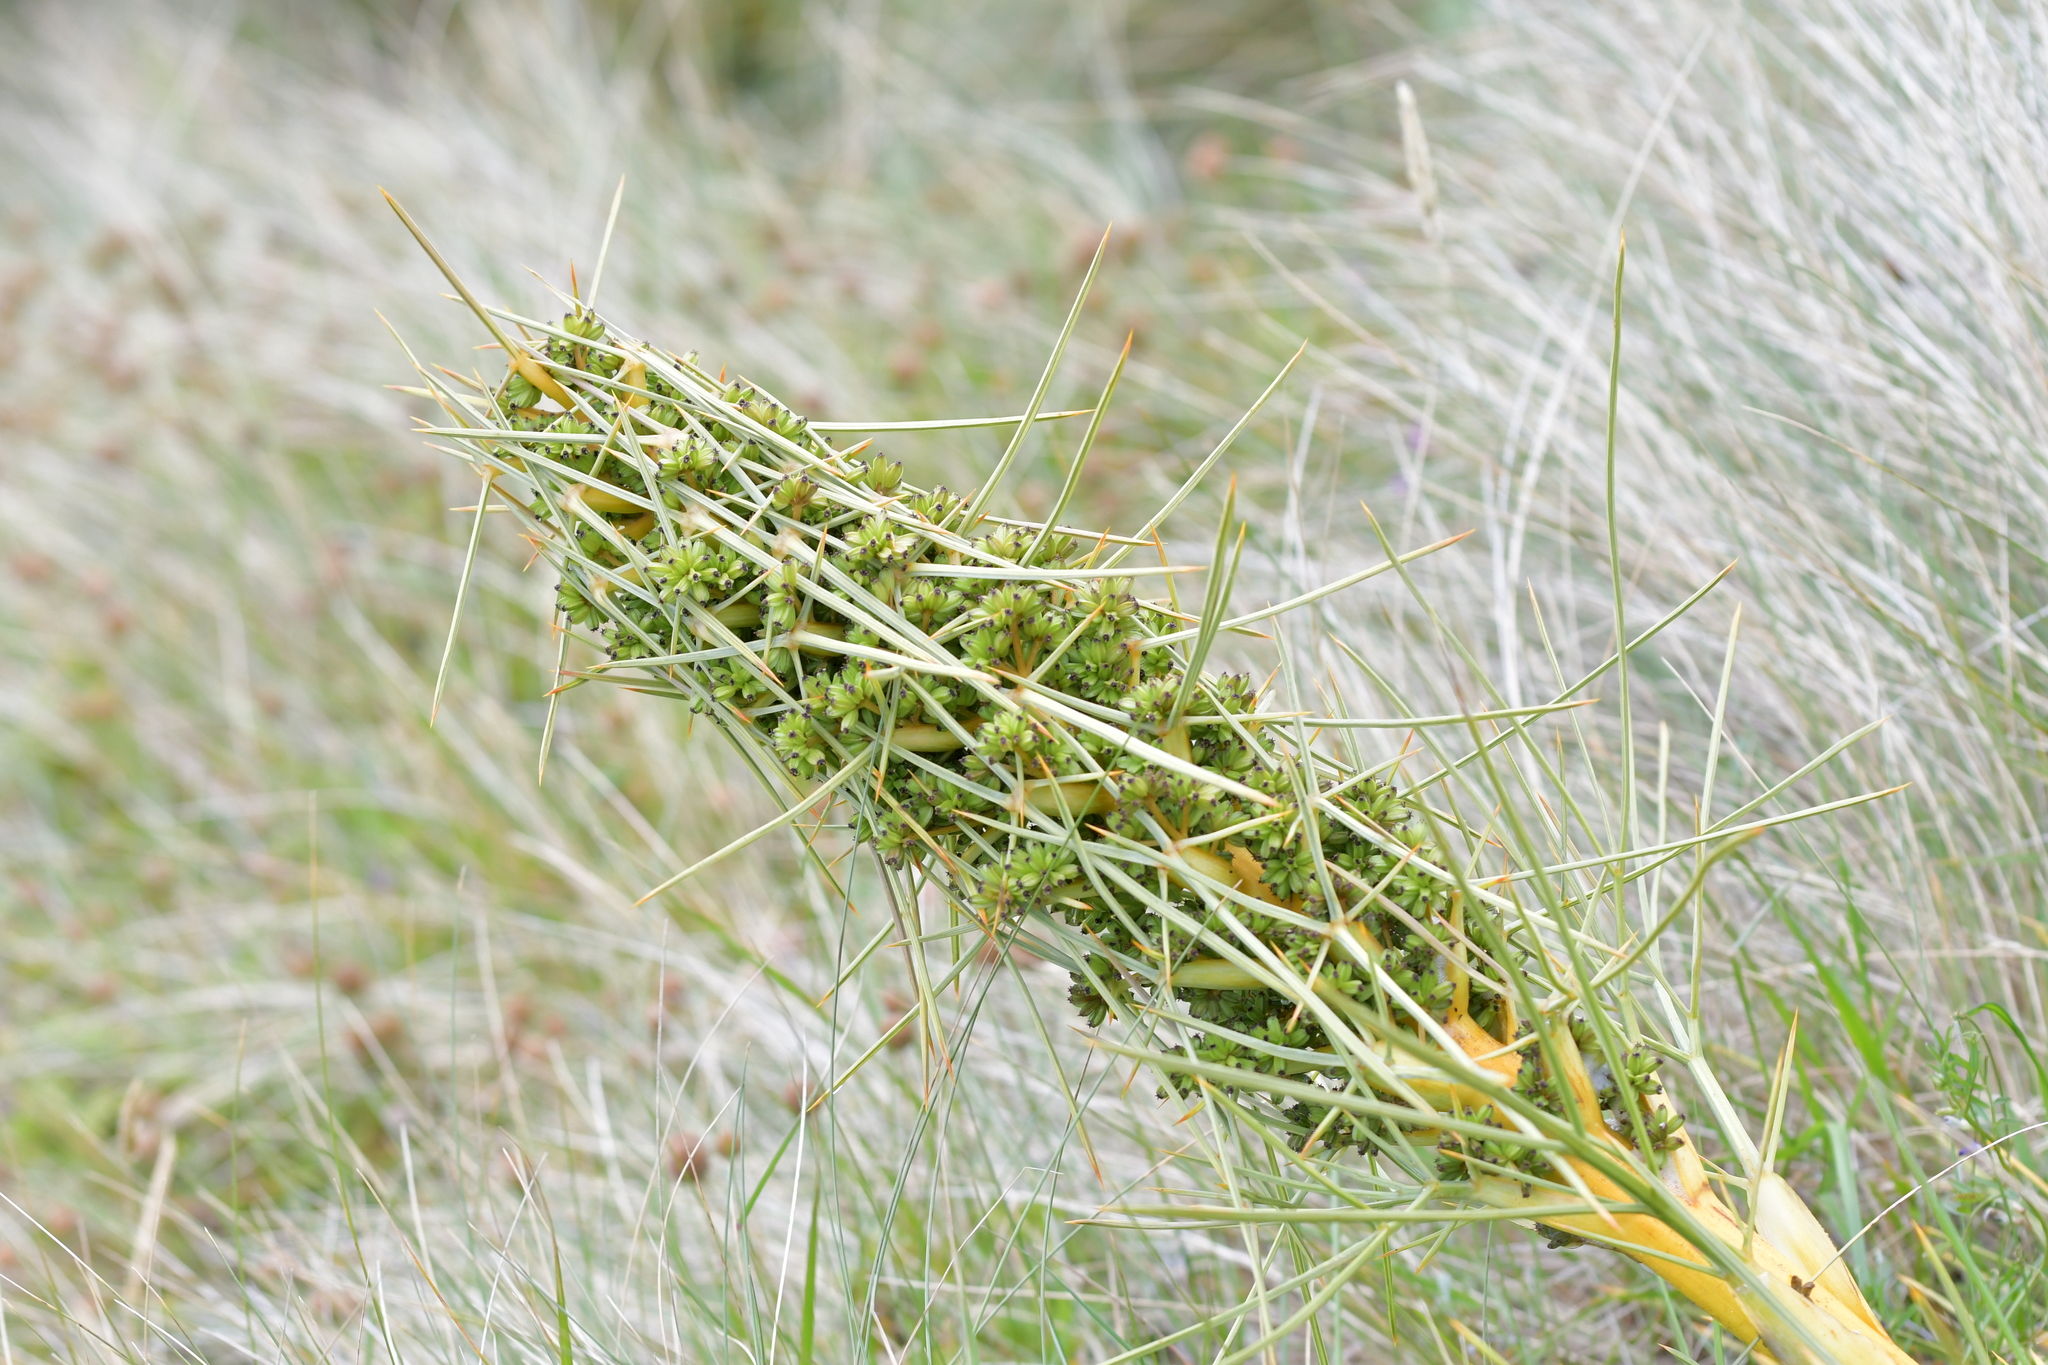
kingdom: Plantae
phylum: Tracheophyta
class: Magnoliopsida
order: Apiales
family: Apiaceae
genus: Aciphylla
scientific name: Aciphylla squarrosa
